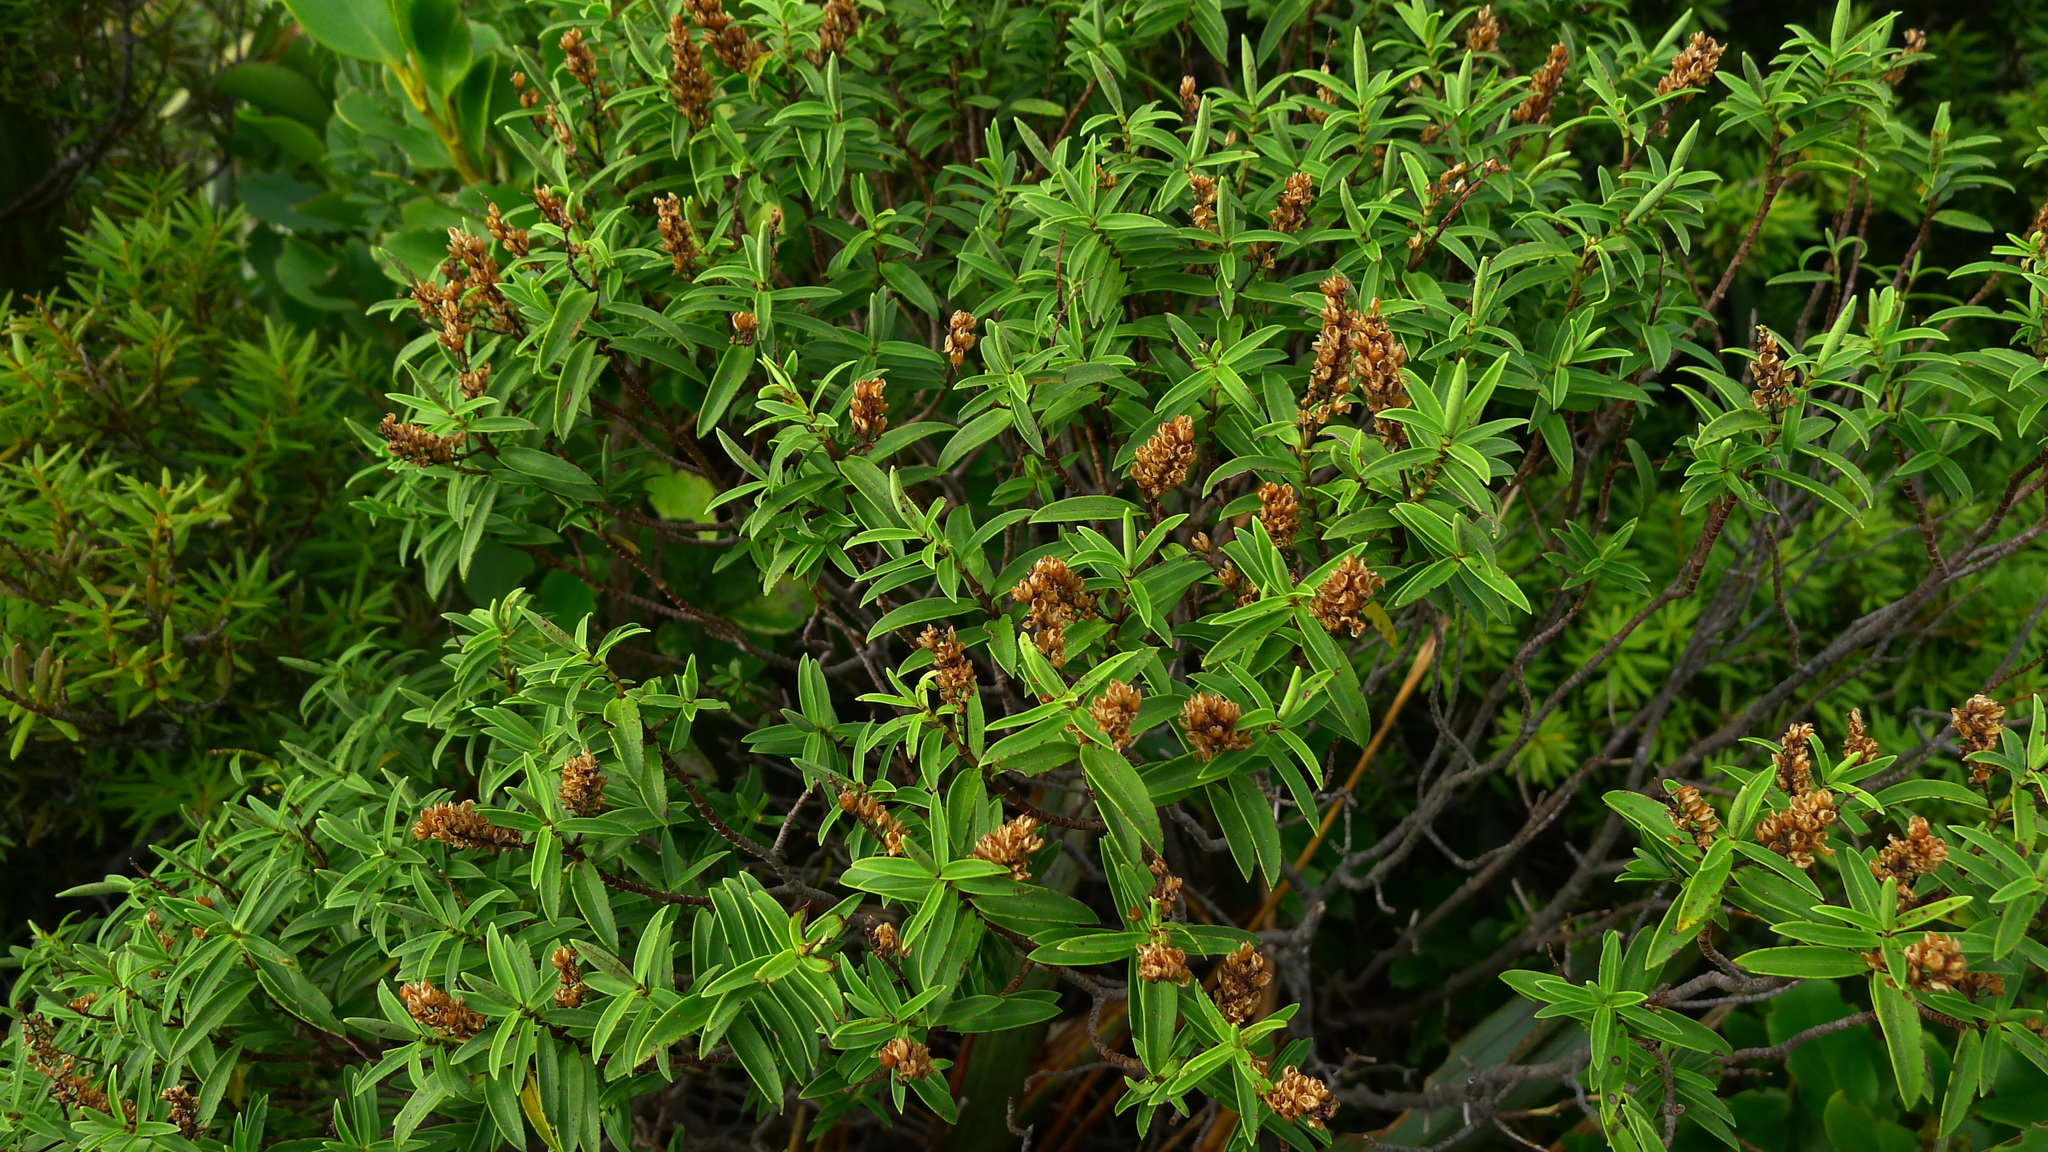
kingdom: Plantae
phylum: Tracheophyta
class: Magnoliopsida
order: Lamiales
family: Plantaginaceae
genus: Veronica
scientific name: Veronica strictissima
